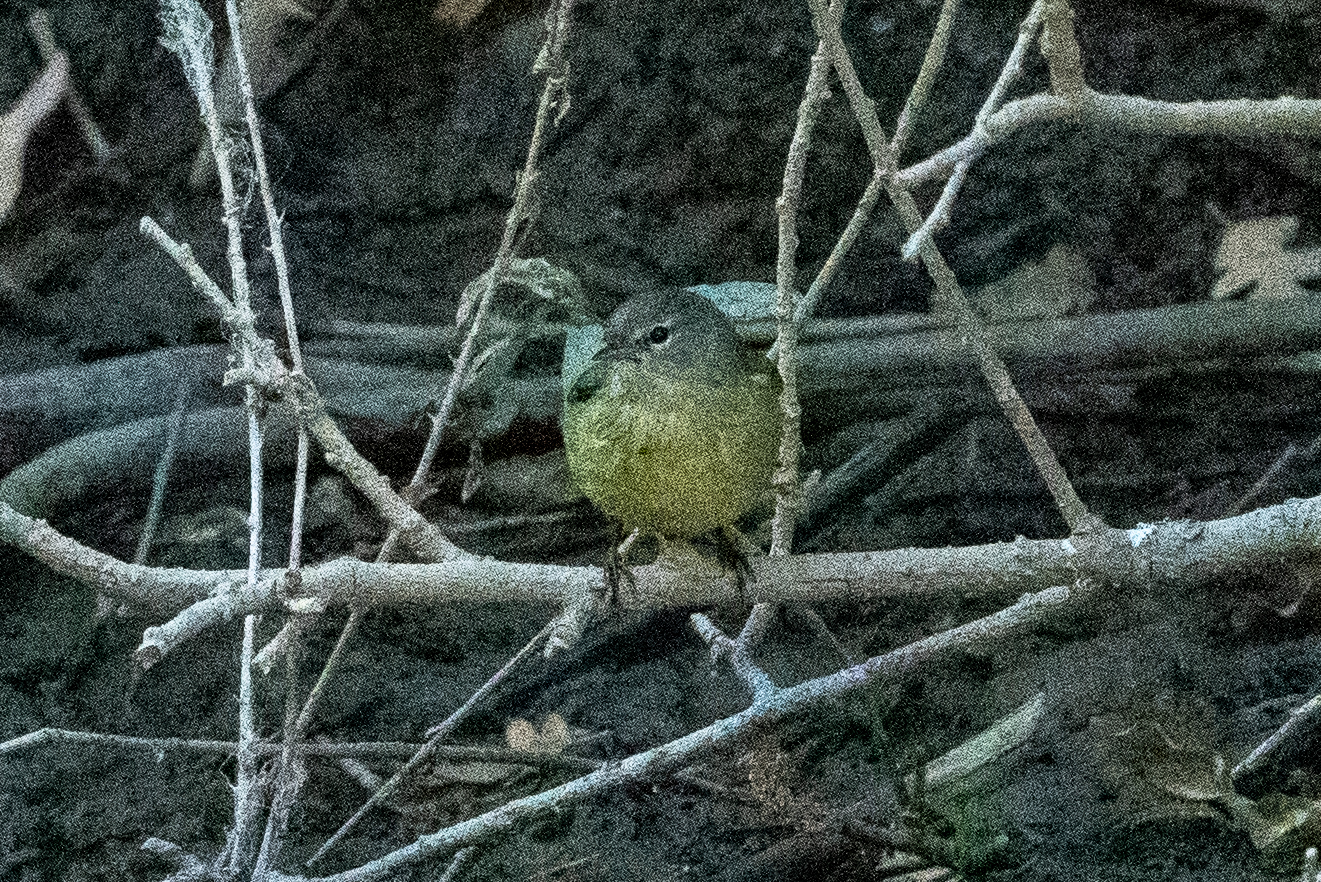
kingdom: Animalia
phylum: Chordata
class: Aves
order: Passeriformes
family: Parulidae
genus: Leiothlypis
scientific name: Leiothlypis celata
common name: Orange-crowned warbler
